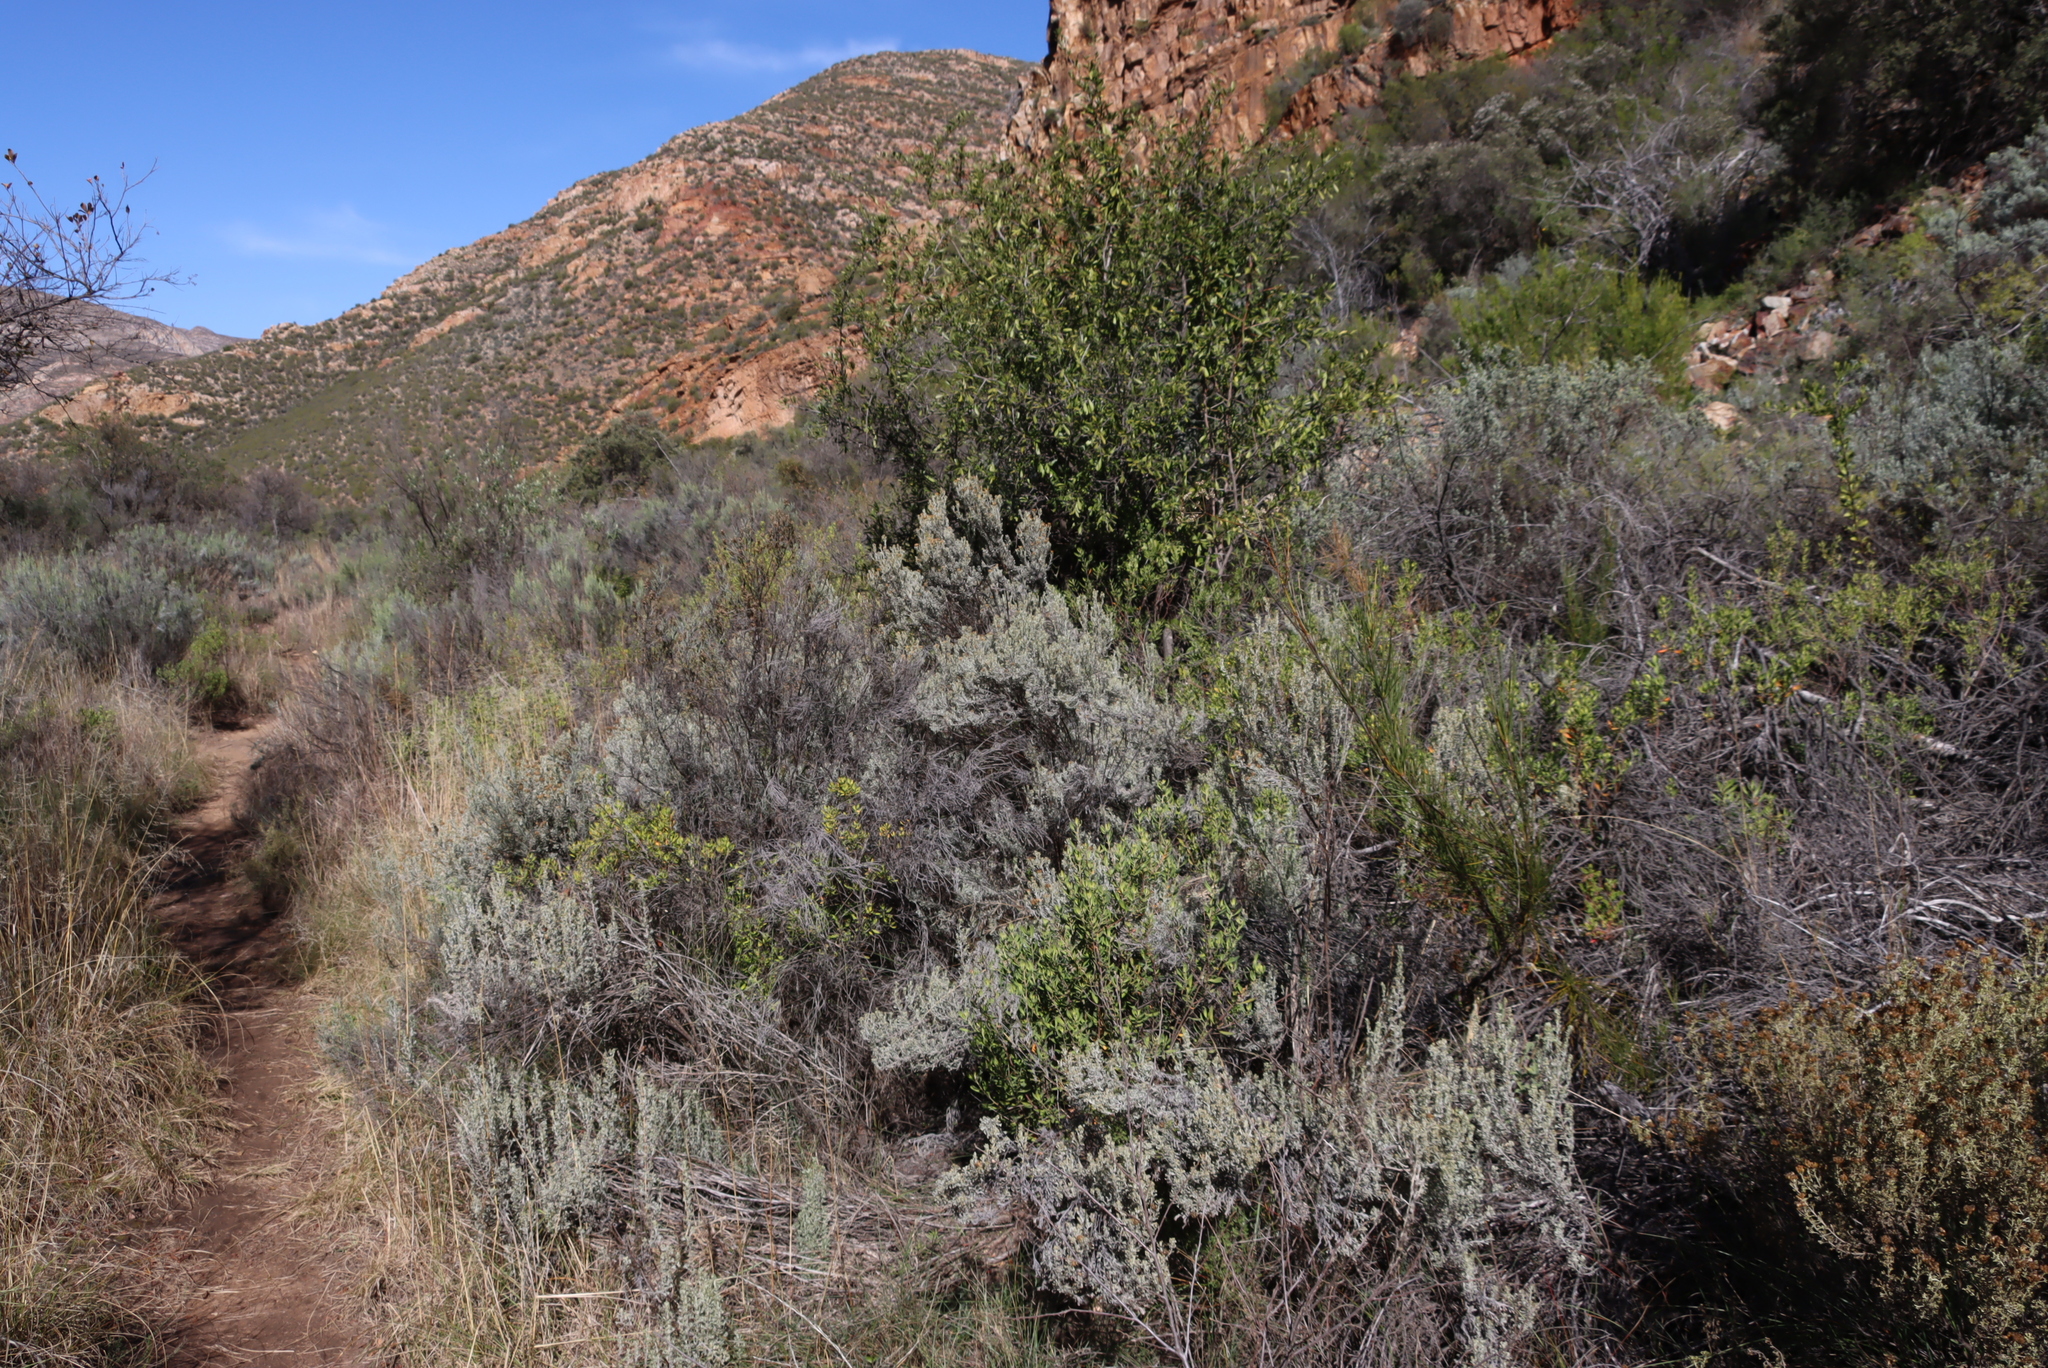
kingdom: Plantae
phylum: Tracheophyta
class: Magnoliopsida
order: Asterales
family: Asteraceae
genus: Pteronia
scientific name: Pteronia incana
